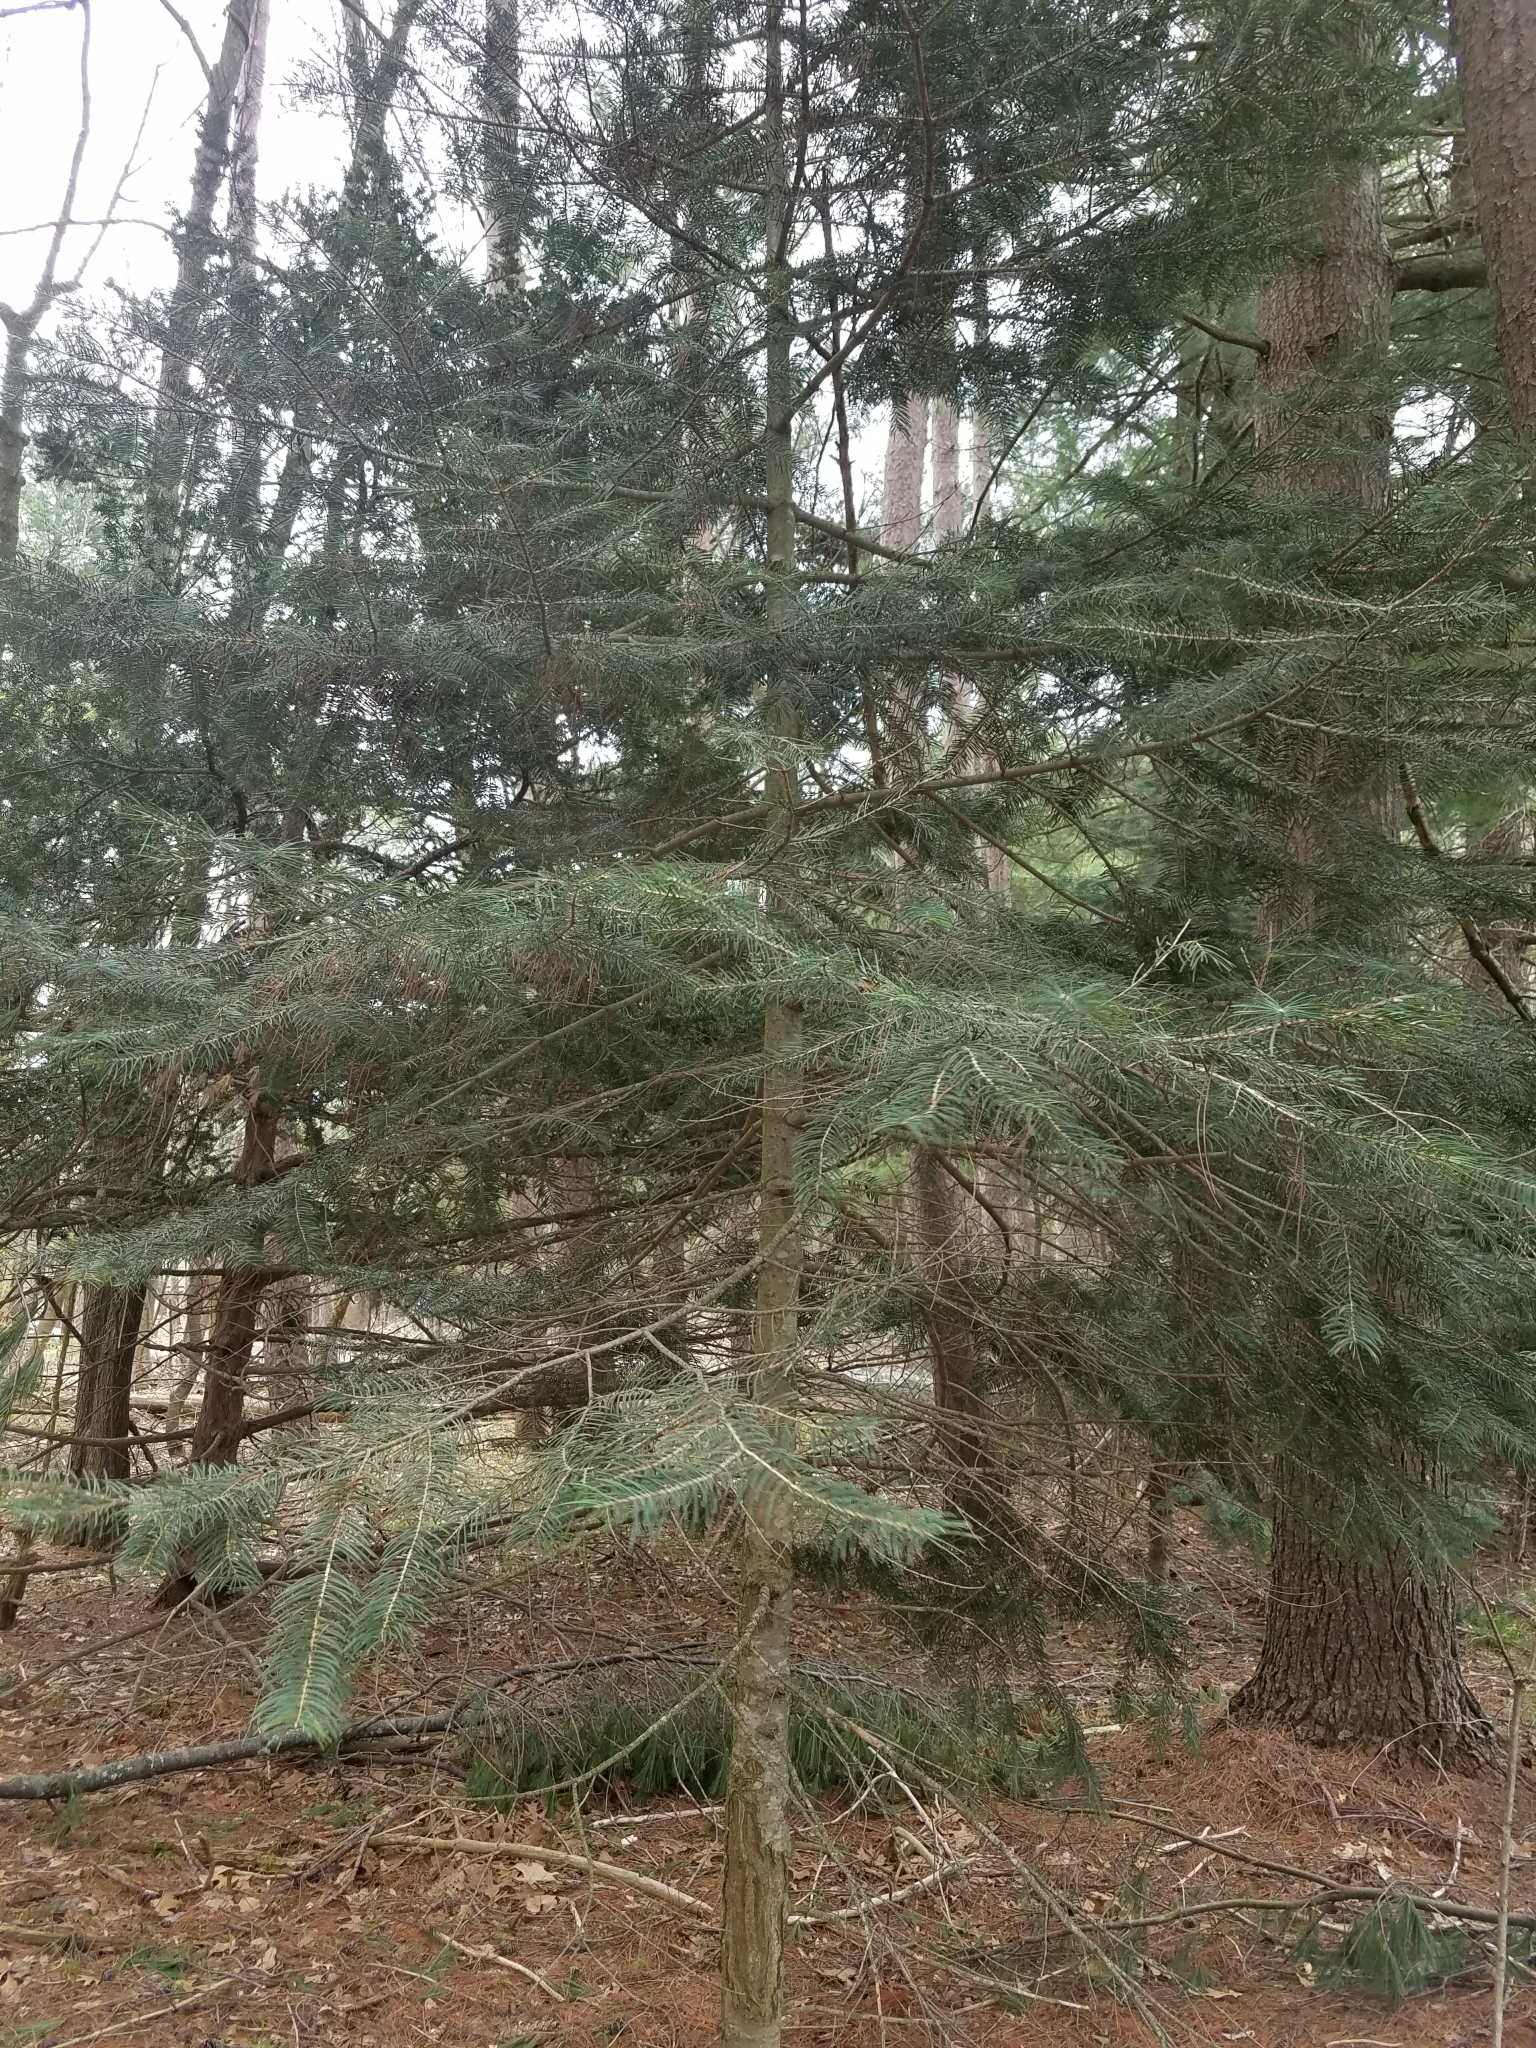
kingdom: Plantae
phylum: Tracheophyta
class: Pinopsida
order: Pinales
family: Pinaceae
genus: Abies
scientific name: Abies concolor
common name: Colorado fir
